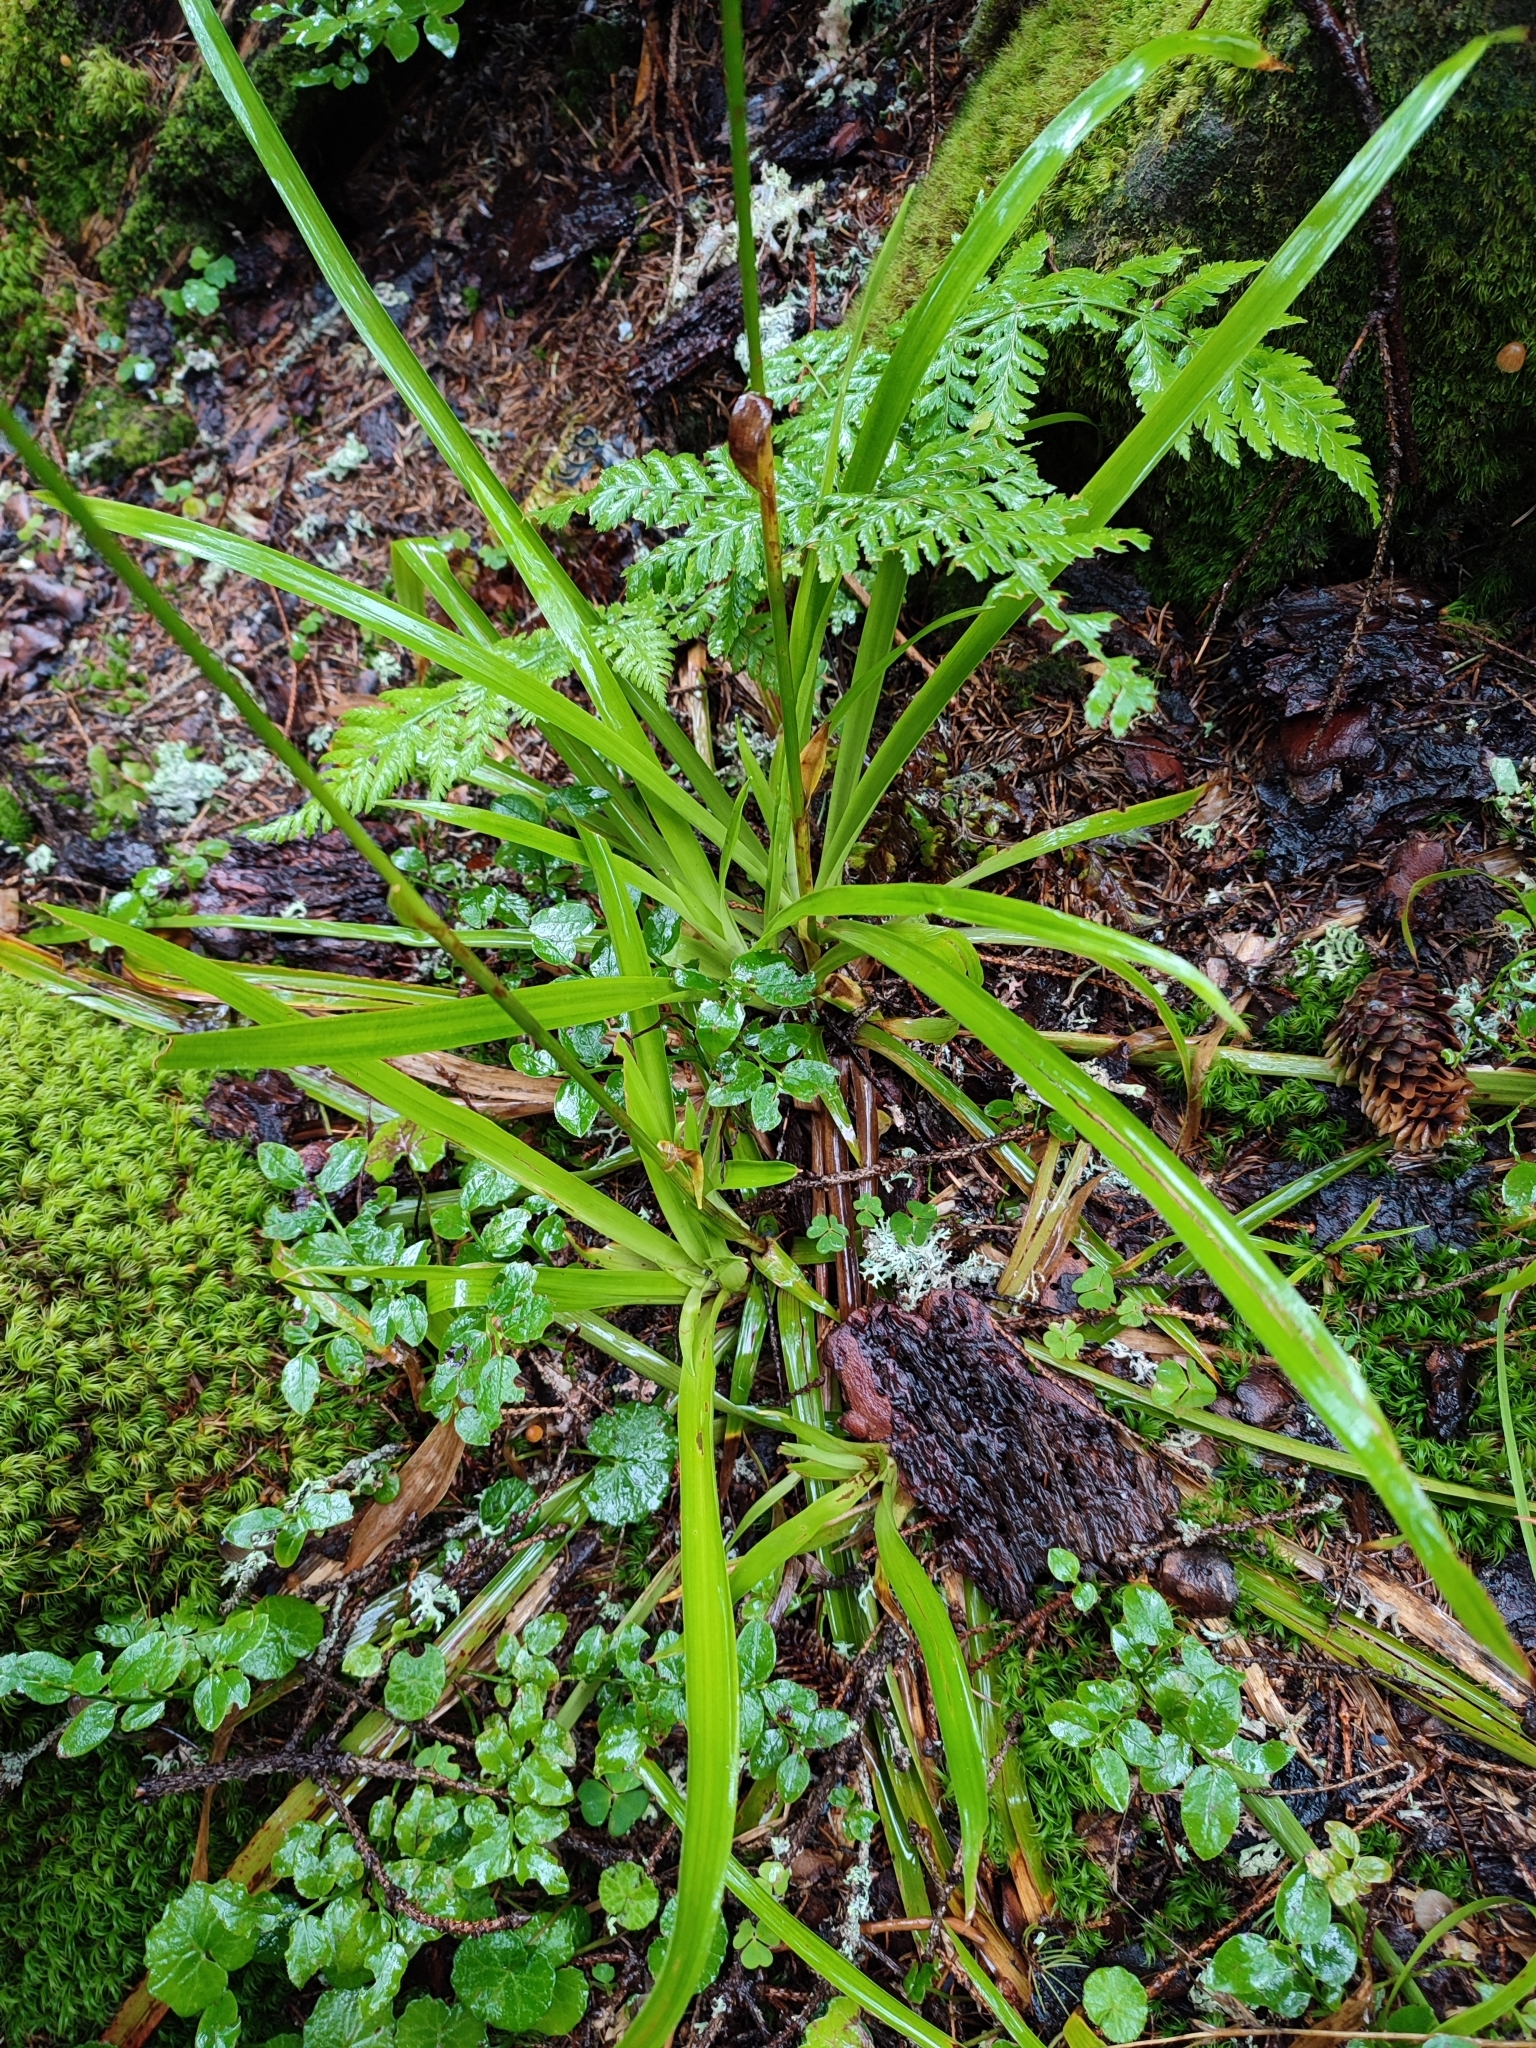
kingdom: Plantae
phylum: Tracheophyta
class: Liliopsida
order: Poales
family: Juncaceae
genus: Luzula
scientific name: Luzula sylvatica
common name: Great wood-rush
